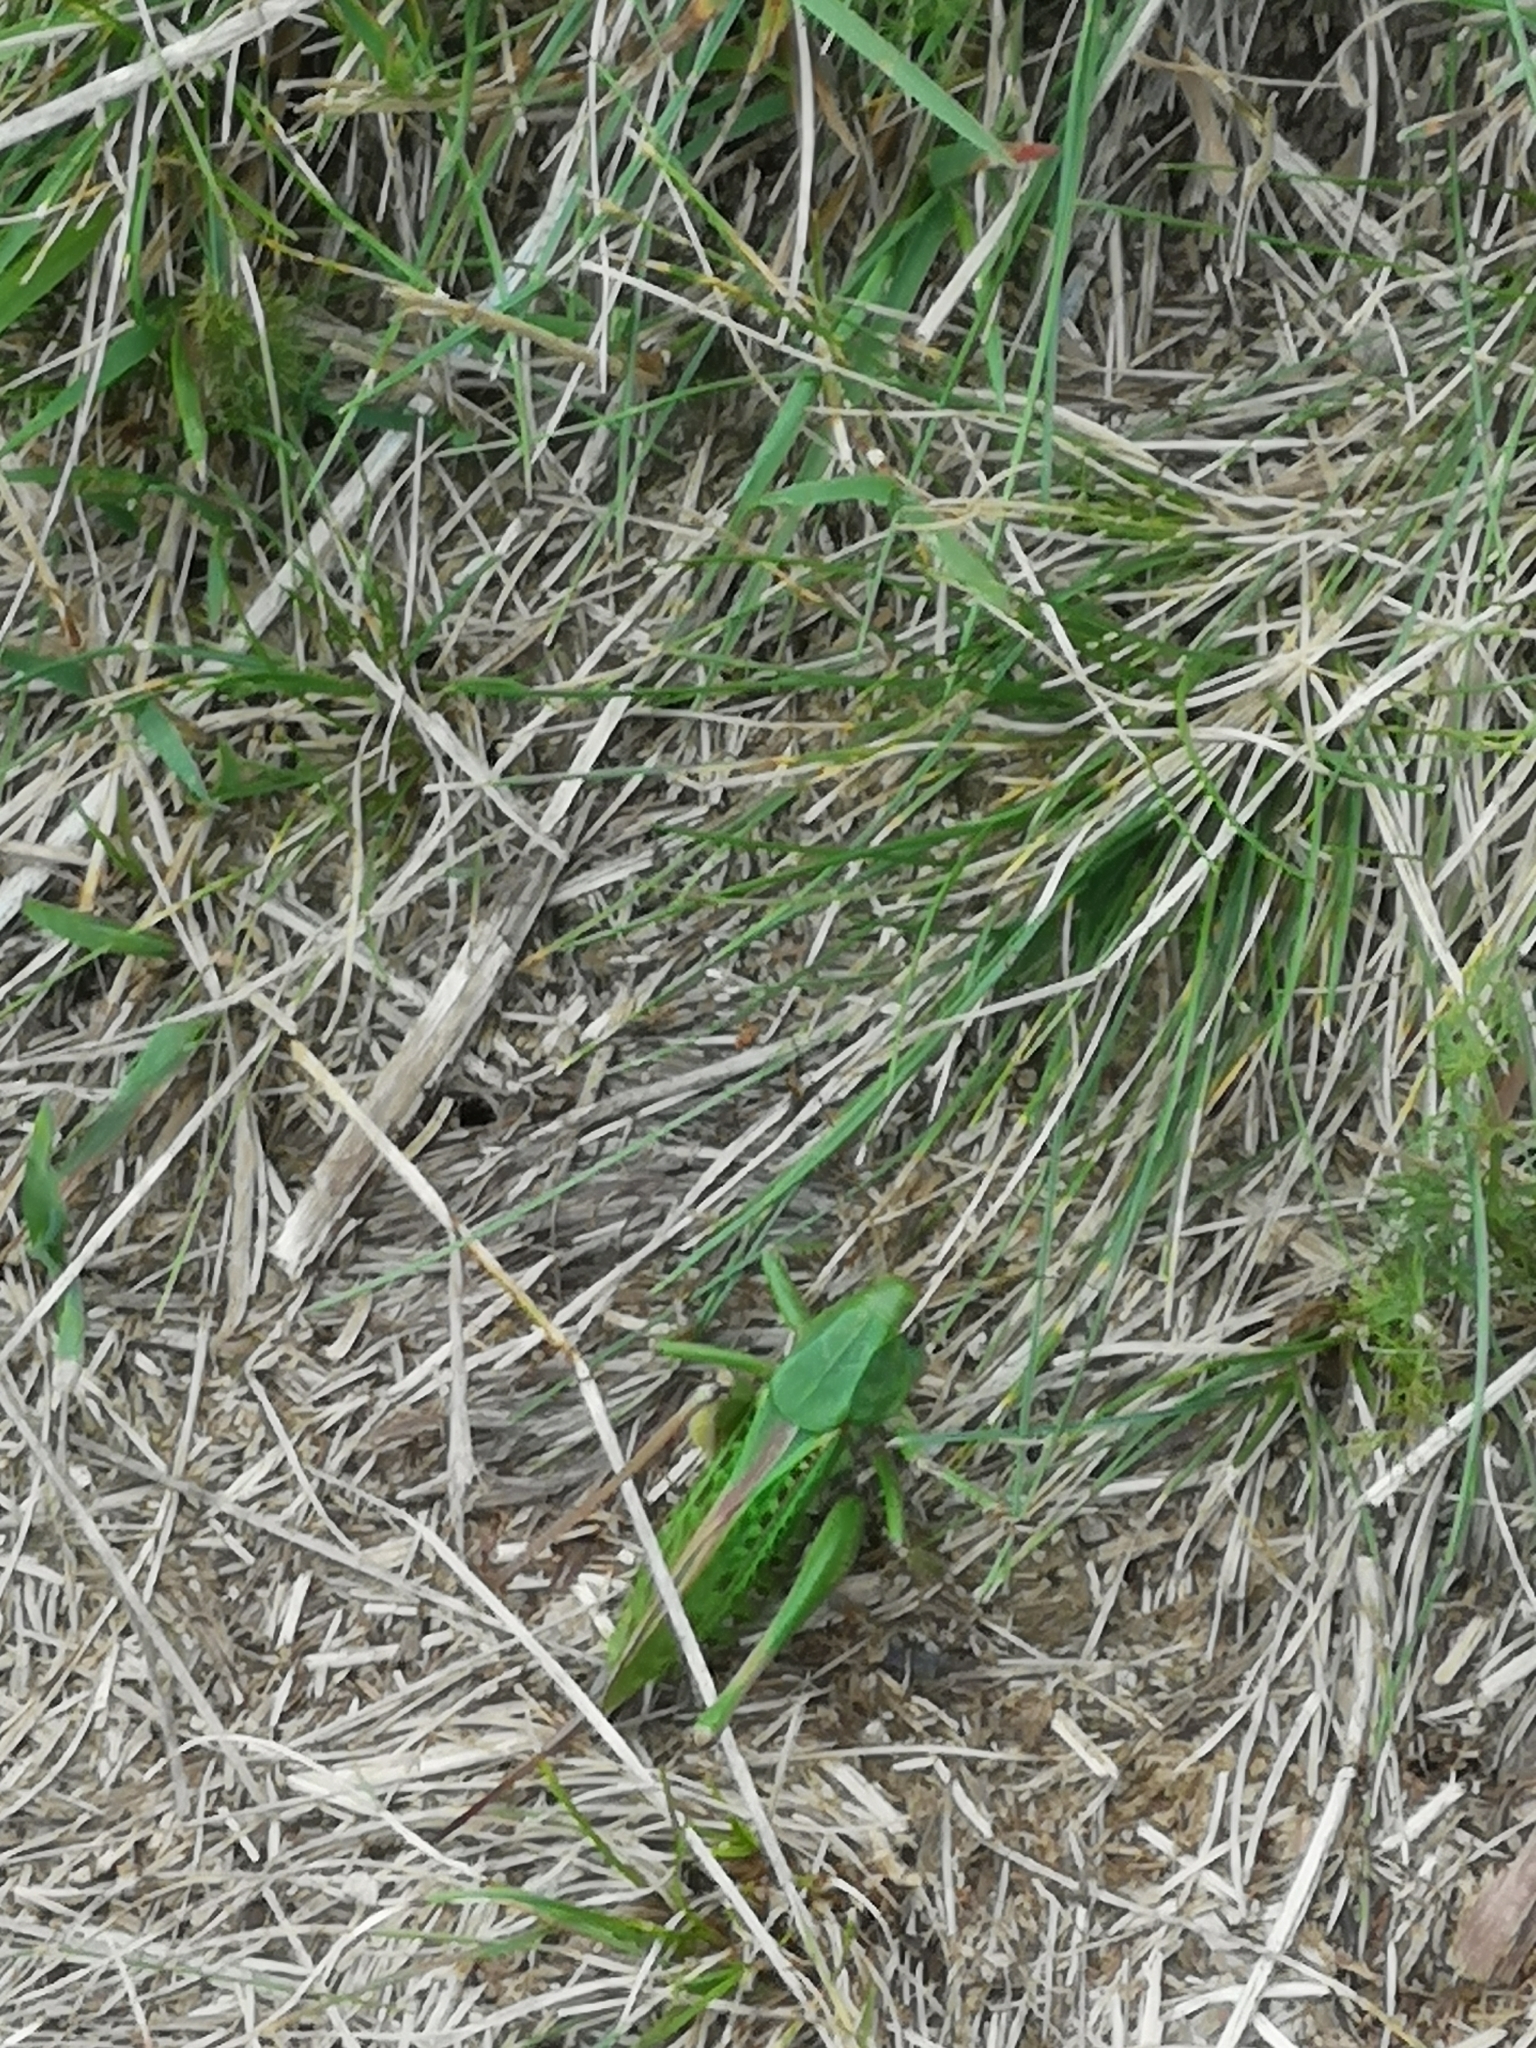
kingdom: Animalia
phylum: Arthropoda
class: Insecta
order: Orthoptera
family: Tettigoniidae
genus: Decticus
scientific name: Decticus verrucivorus
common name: Wart-biter
